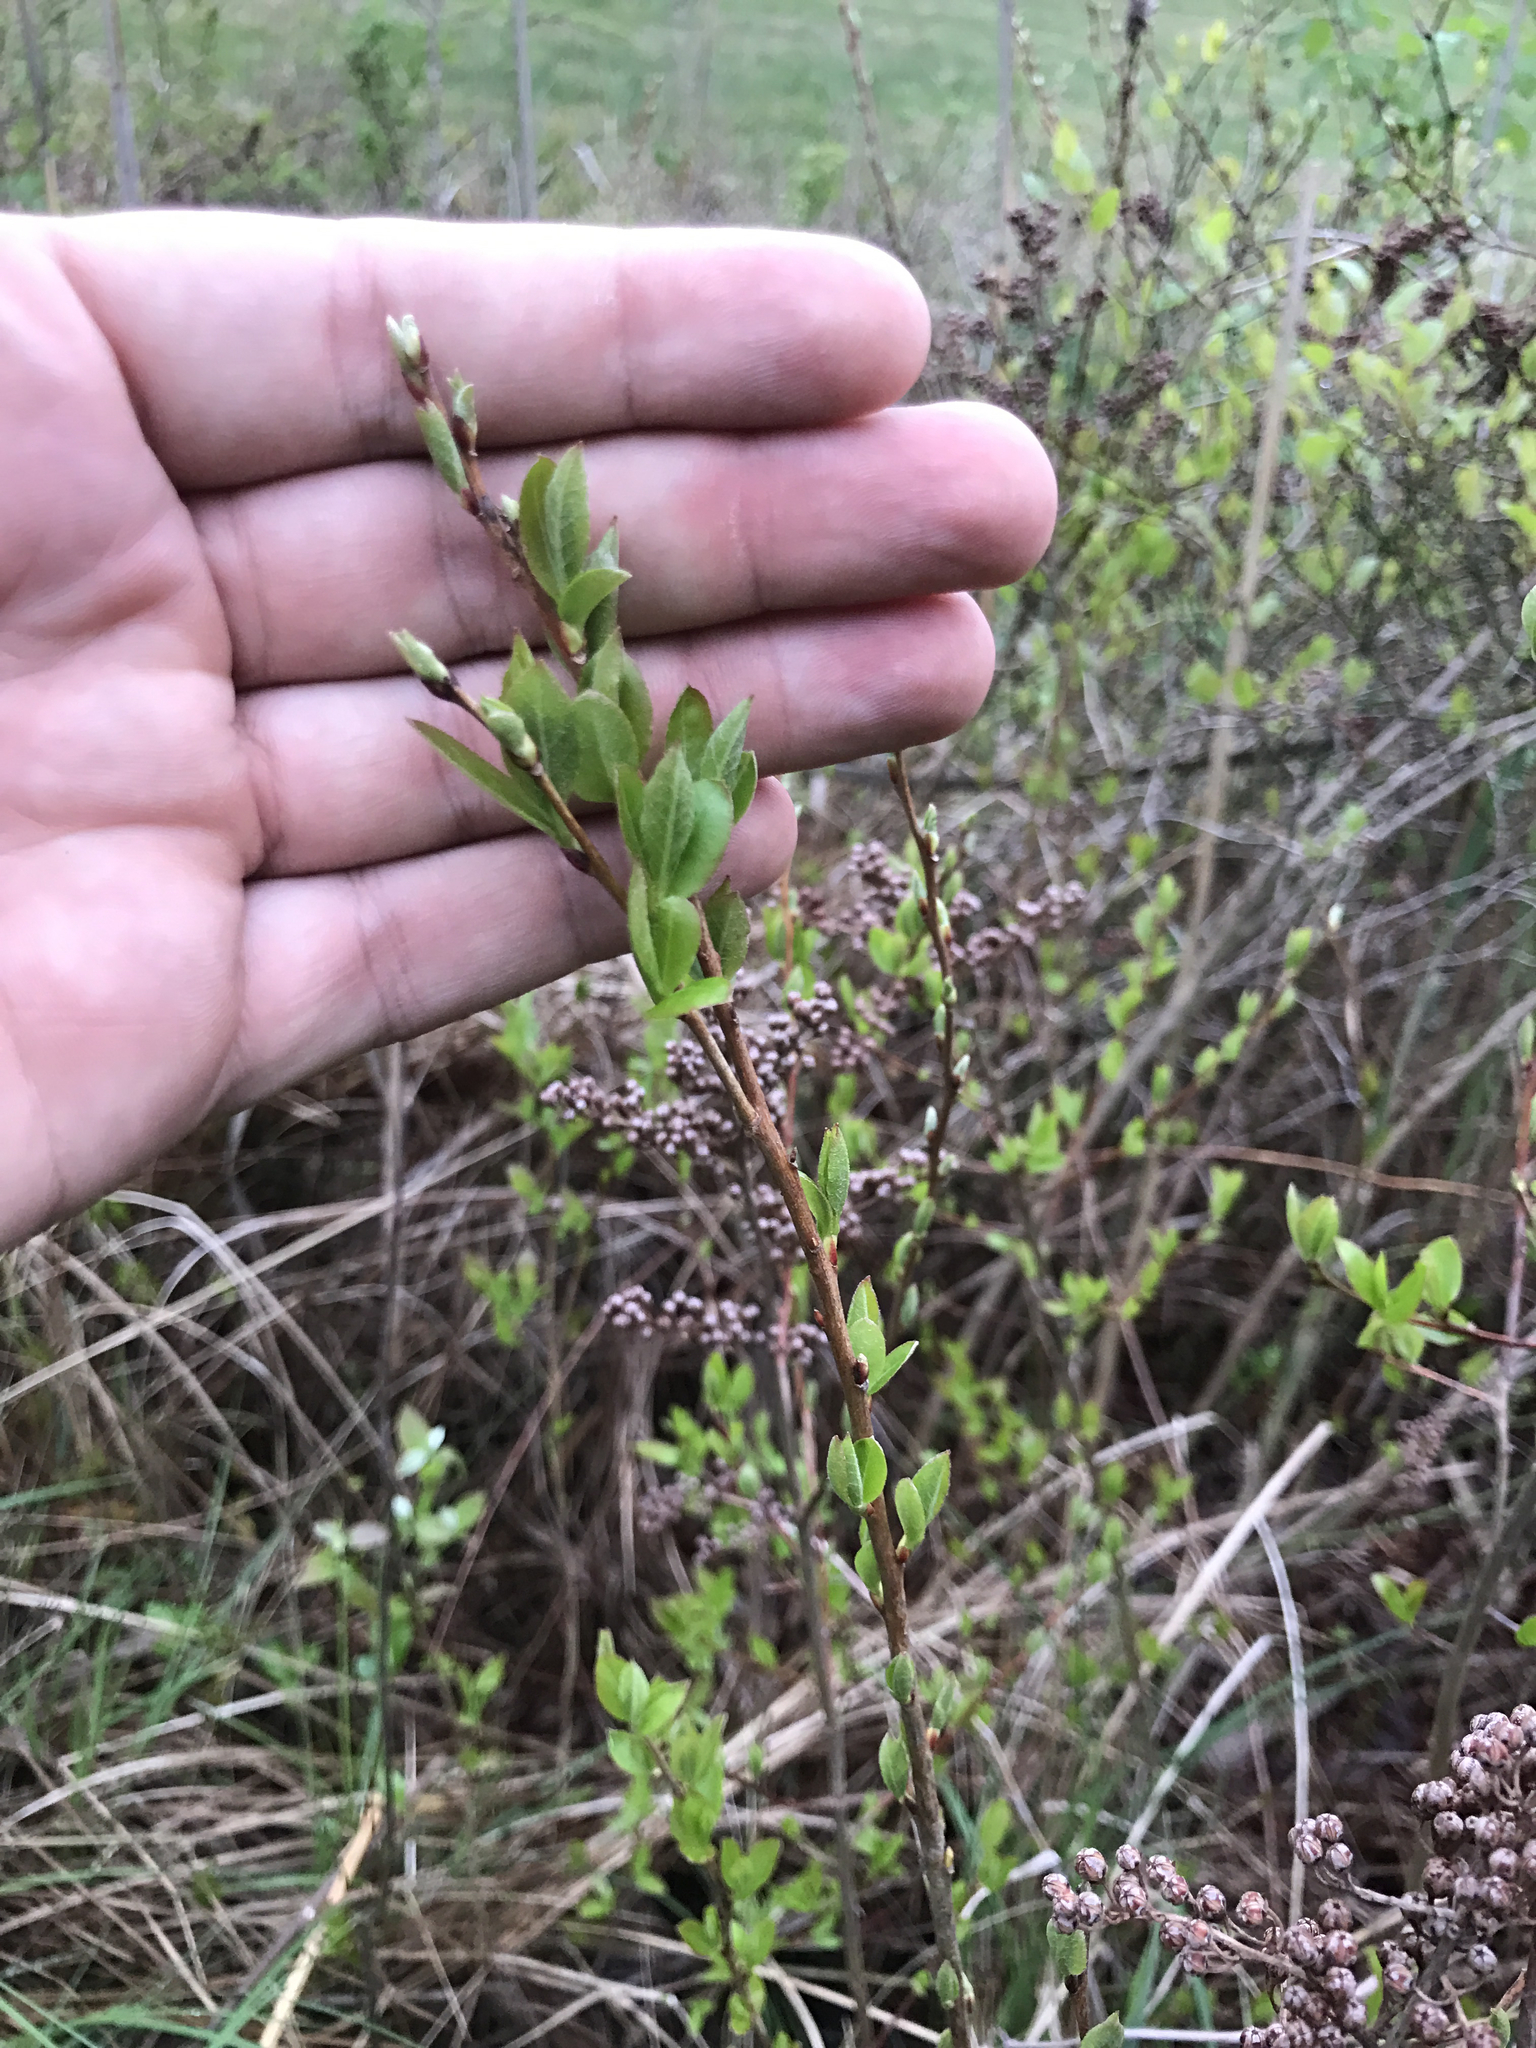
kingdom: Plantae
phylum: Tracheophyta
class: Magnoliopsida
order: Ericales
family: Ericaceae
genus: Lyonia
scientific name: Lyonia ligustrina
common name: Maleberry
